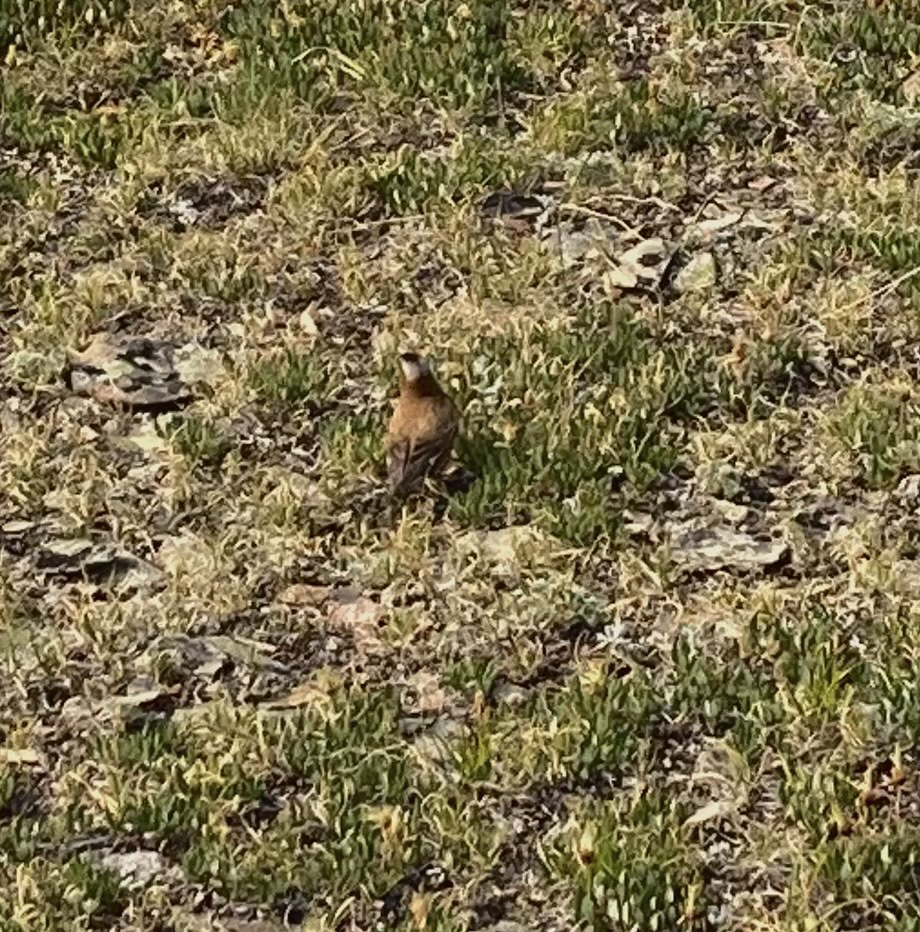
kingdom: Animalia
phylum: Chordata
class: Aves
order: Passeriformes
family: Fringillidae
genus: Leucosticte
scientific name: Leucosticte tephrocotis
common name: Gray-crowned rosy-finch
